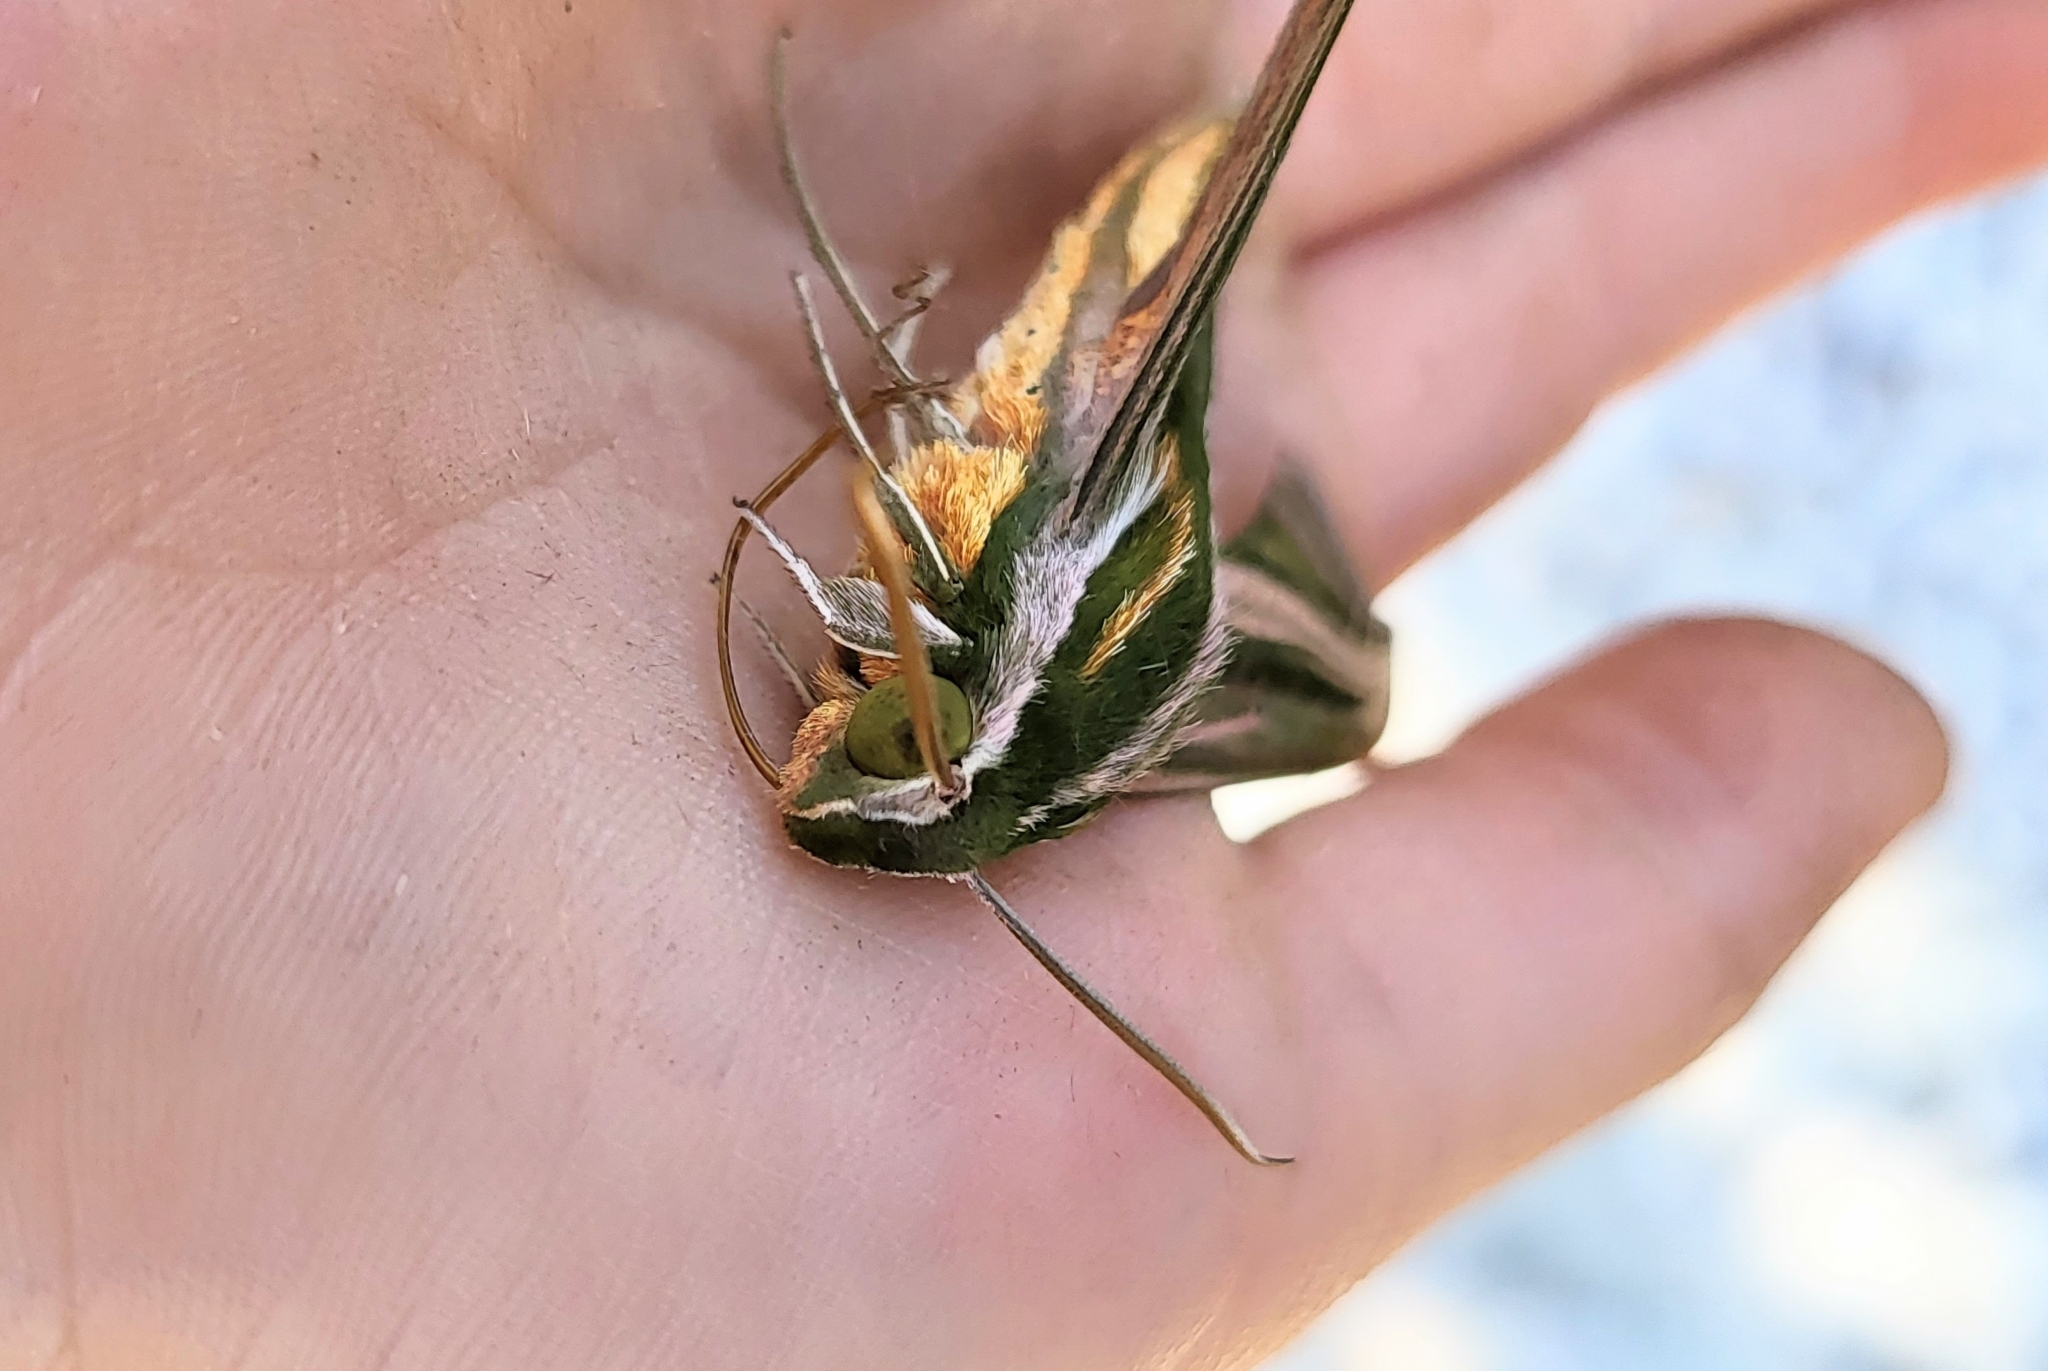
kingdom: Animalia
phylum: Arthropoda
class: Insecta
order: Lepidoptera
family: Sphingidae
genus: Xylophanes
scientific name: Xylophanes eumedon
